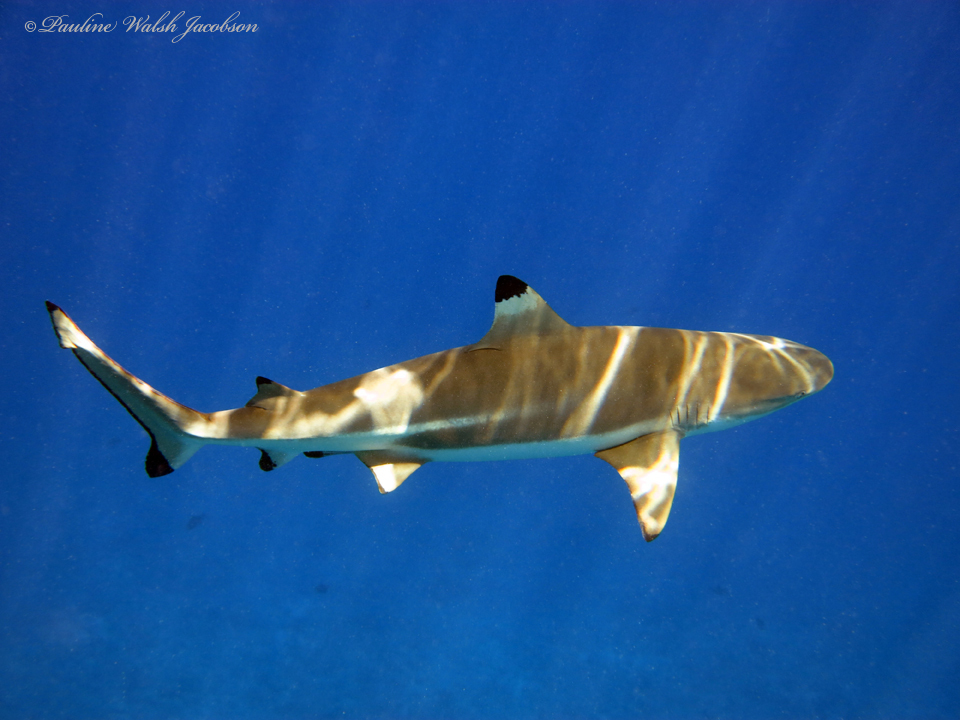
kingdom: Animalia
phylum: Chordata
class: Elasmobranchii
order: Carcharhiniformes
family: Carcharhinidae
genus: Carcharhinus
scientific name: Carcharhinus melanopterus
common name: Blacktip reef shark
